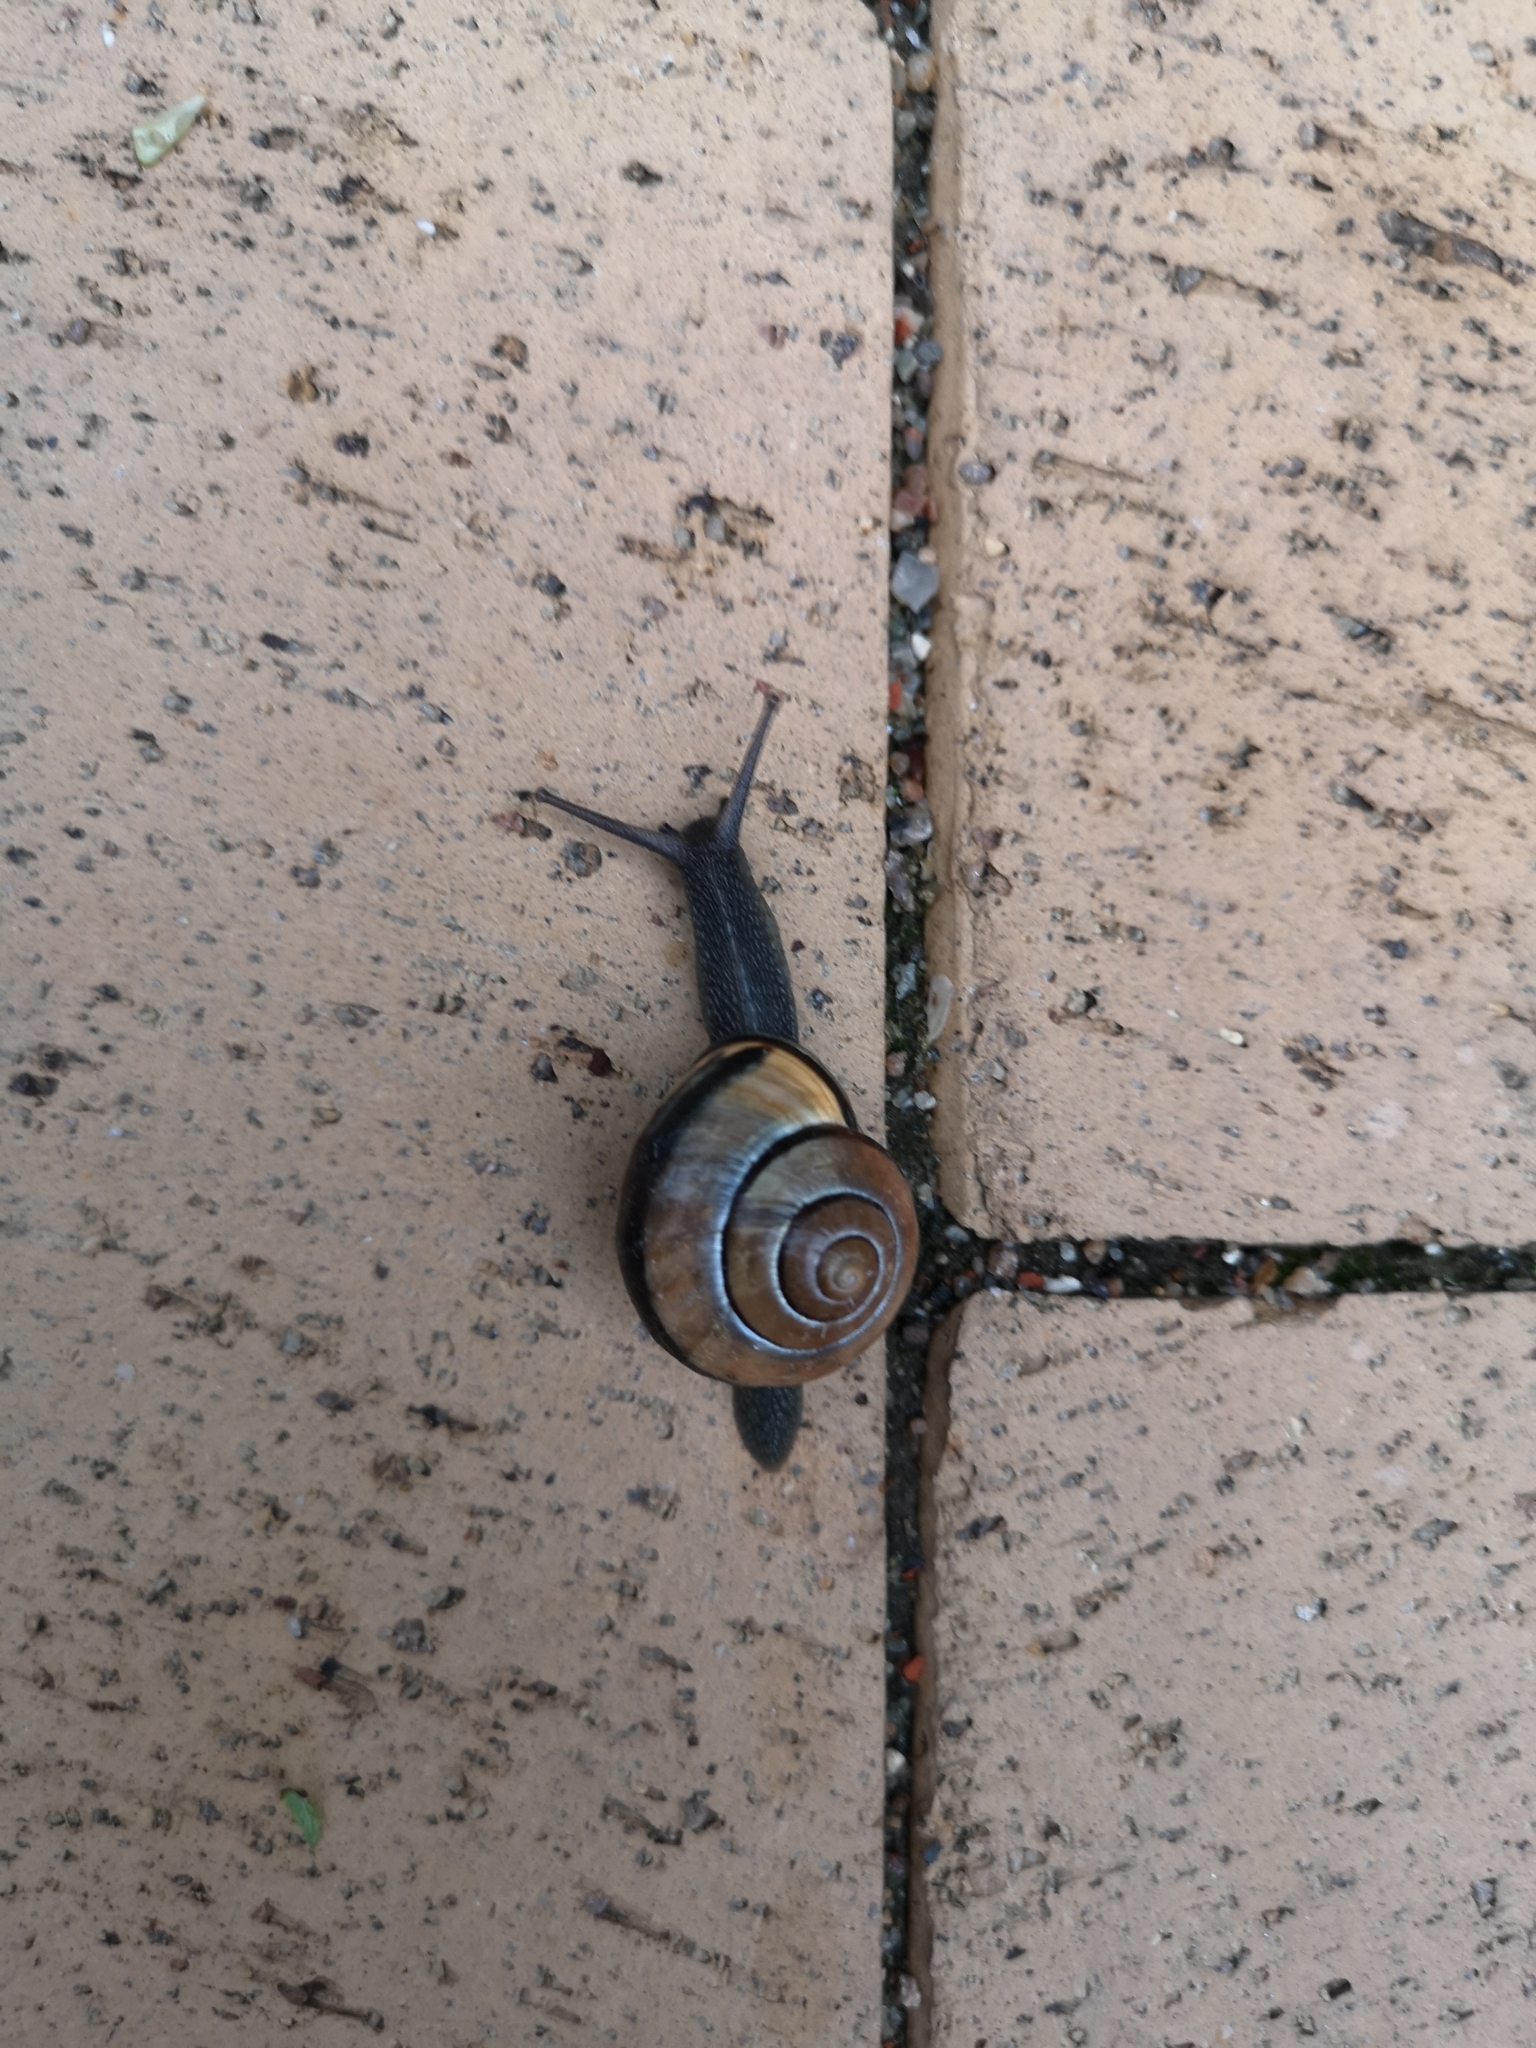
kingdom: Animalia
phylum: Mollusca
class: Gastropoda
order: Stylommatophora
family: Helicidae
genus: Cepaea
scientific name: Cepaea nemoralis
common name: Grovesnail
